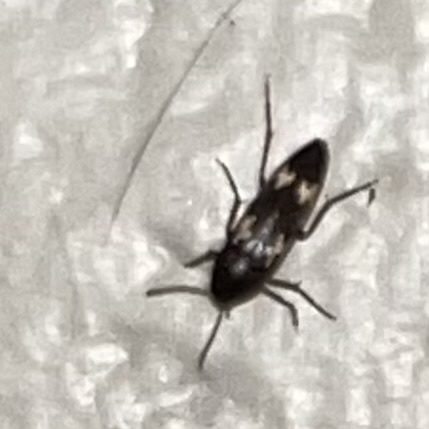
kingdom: Animalia
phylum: Arthropoda
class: Insecta
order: Coleoptera
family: Melandryidae
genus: Dircaea
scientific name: Dircaea liturata
